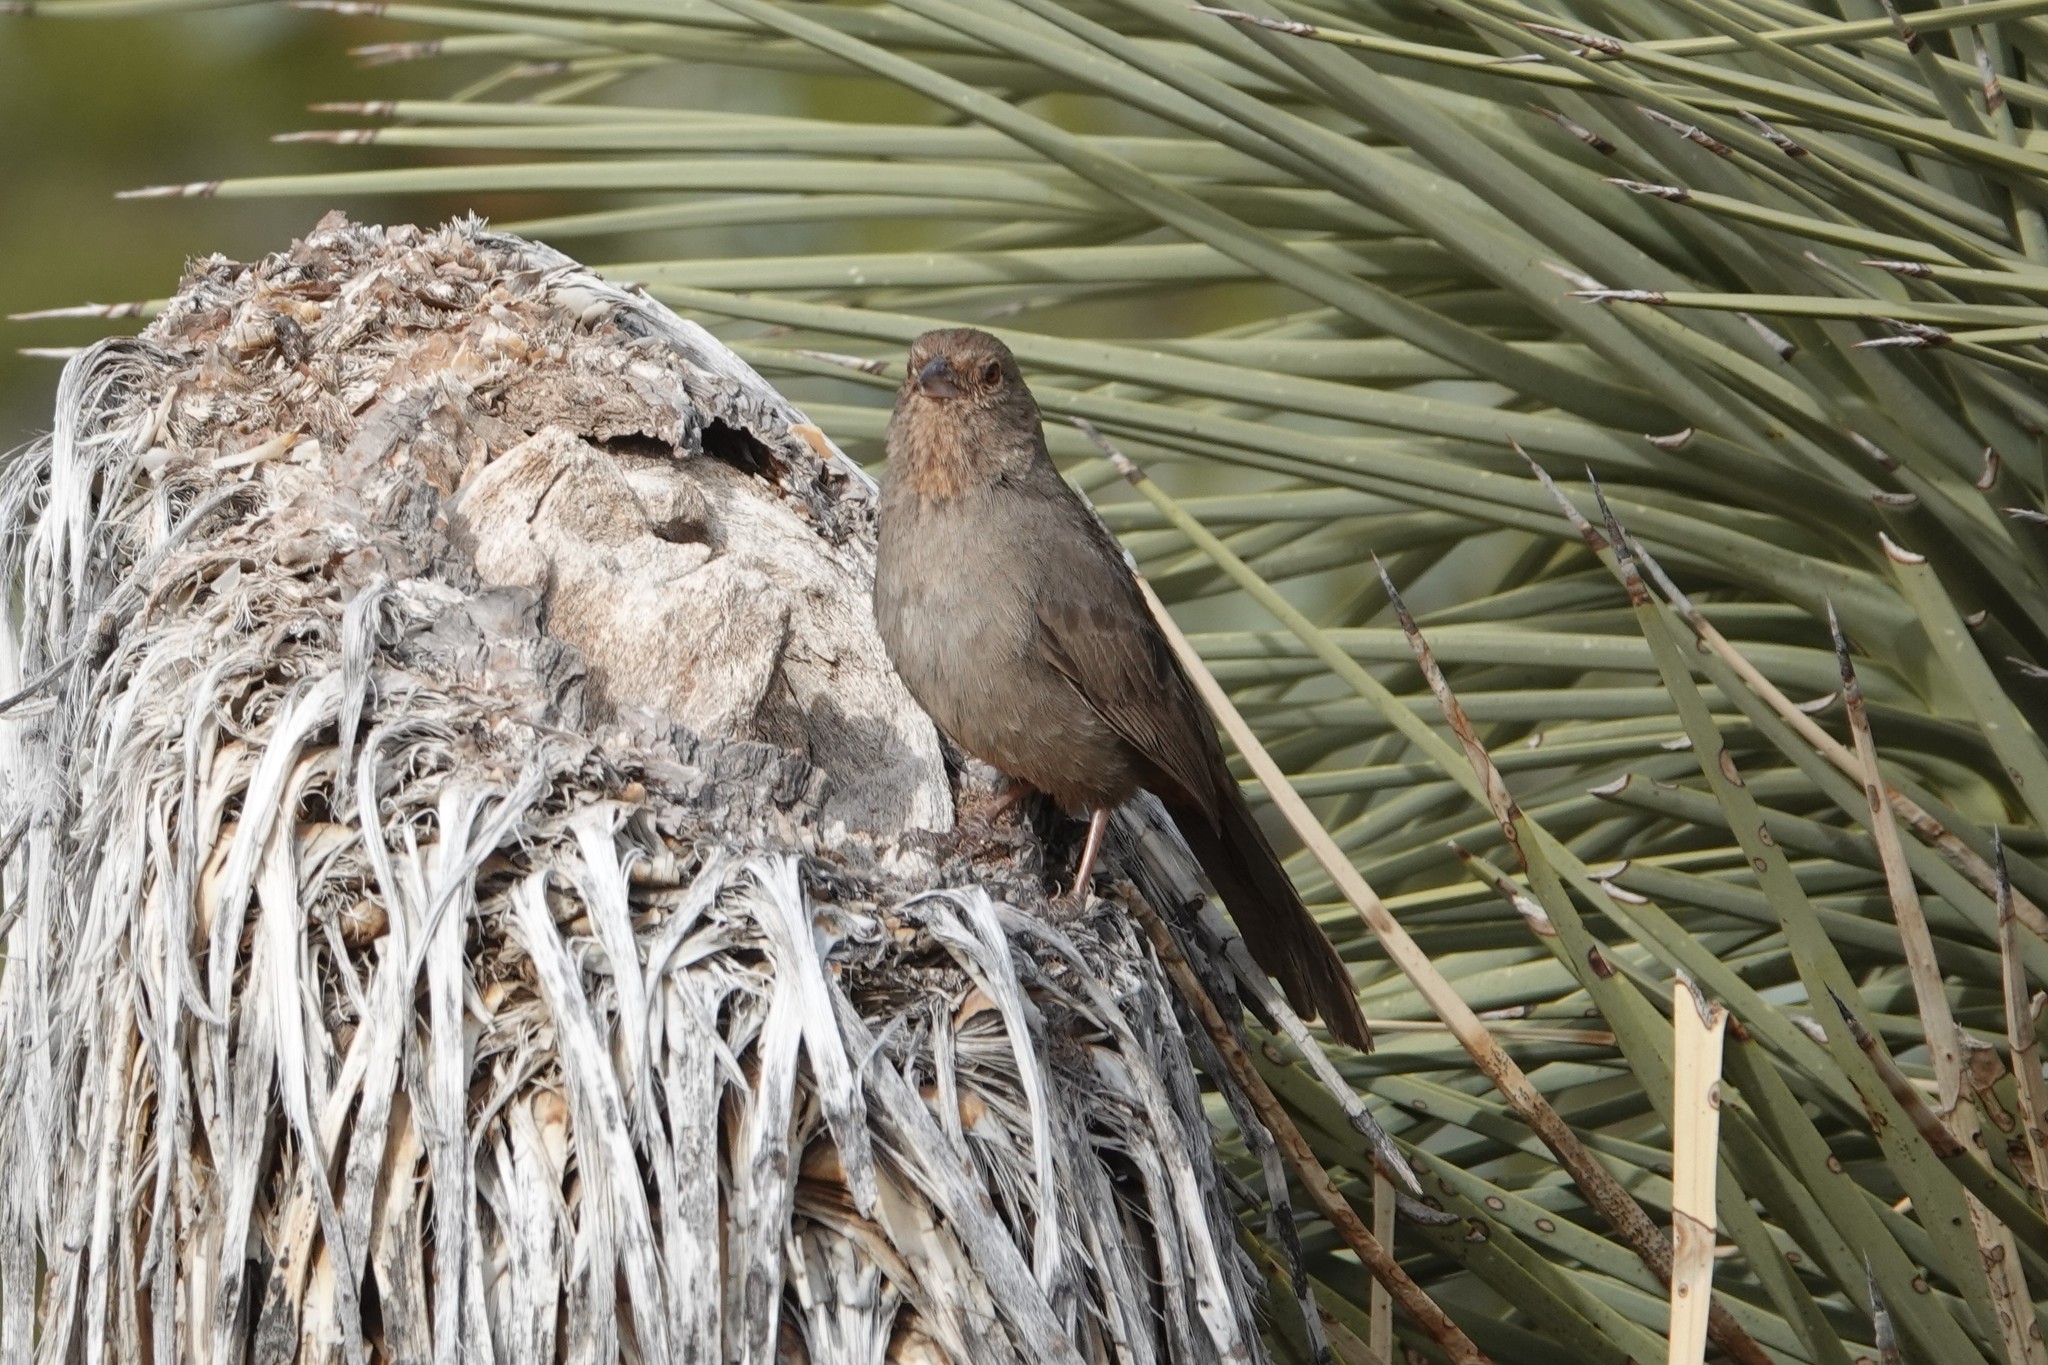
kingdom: Animalia
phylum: Chordata
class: Aves
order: Passeriformes
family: Passerellidae
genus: Melozone
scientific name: Melozone crissalis
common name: California towhee
